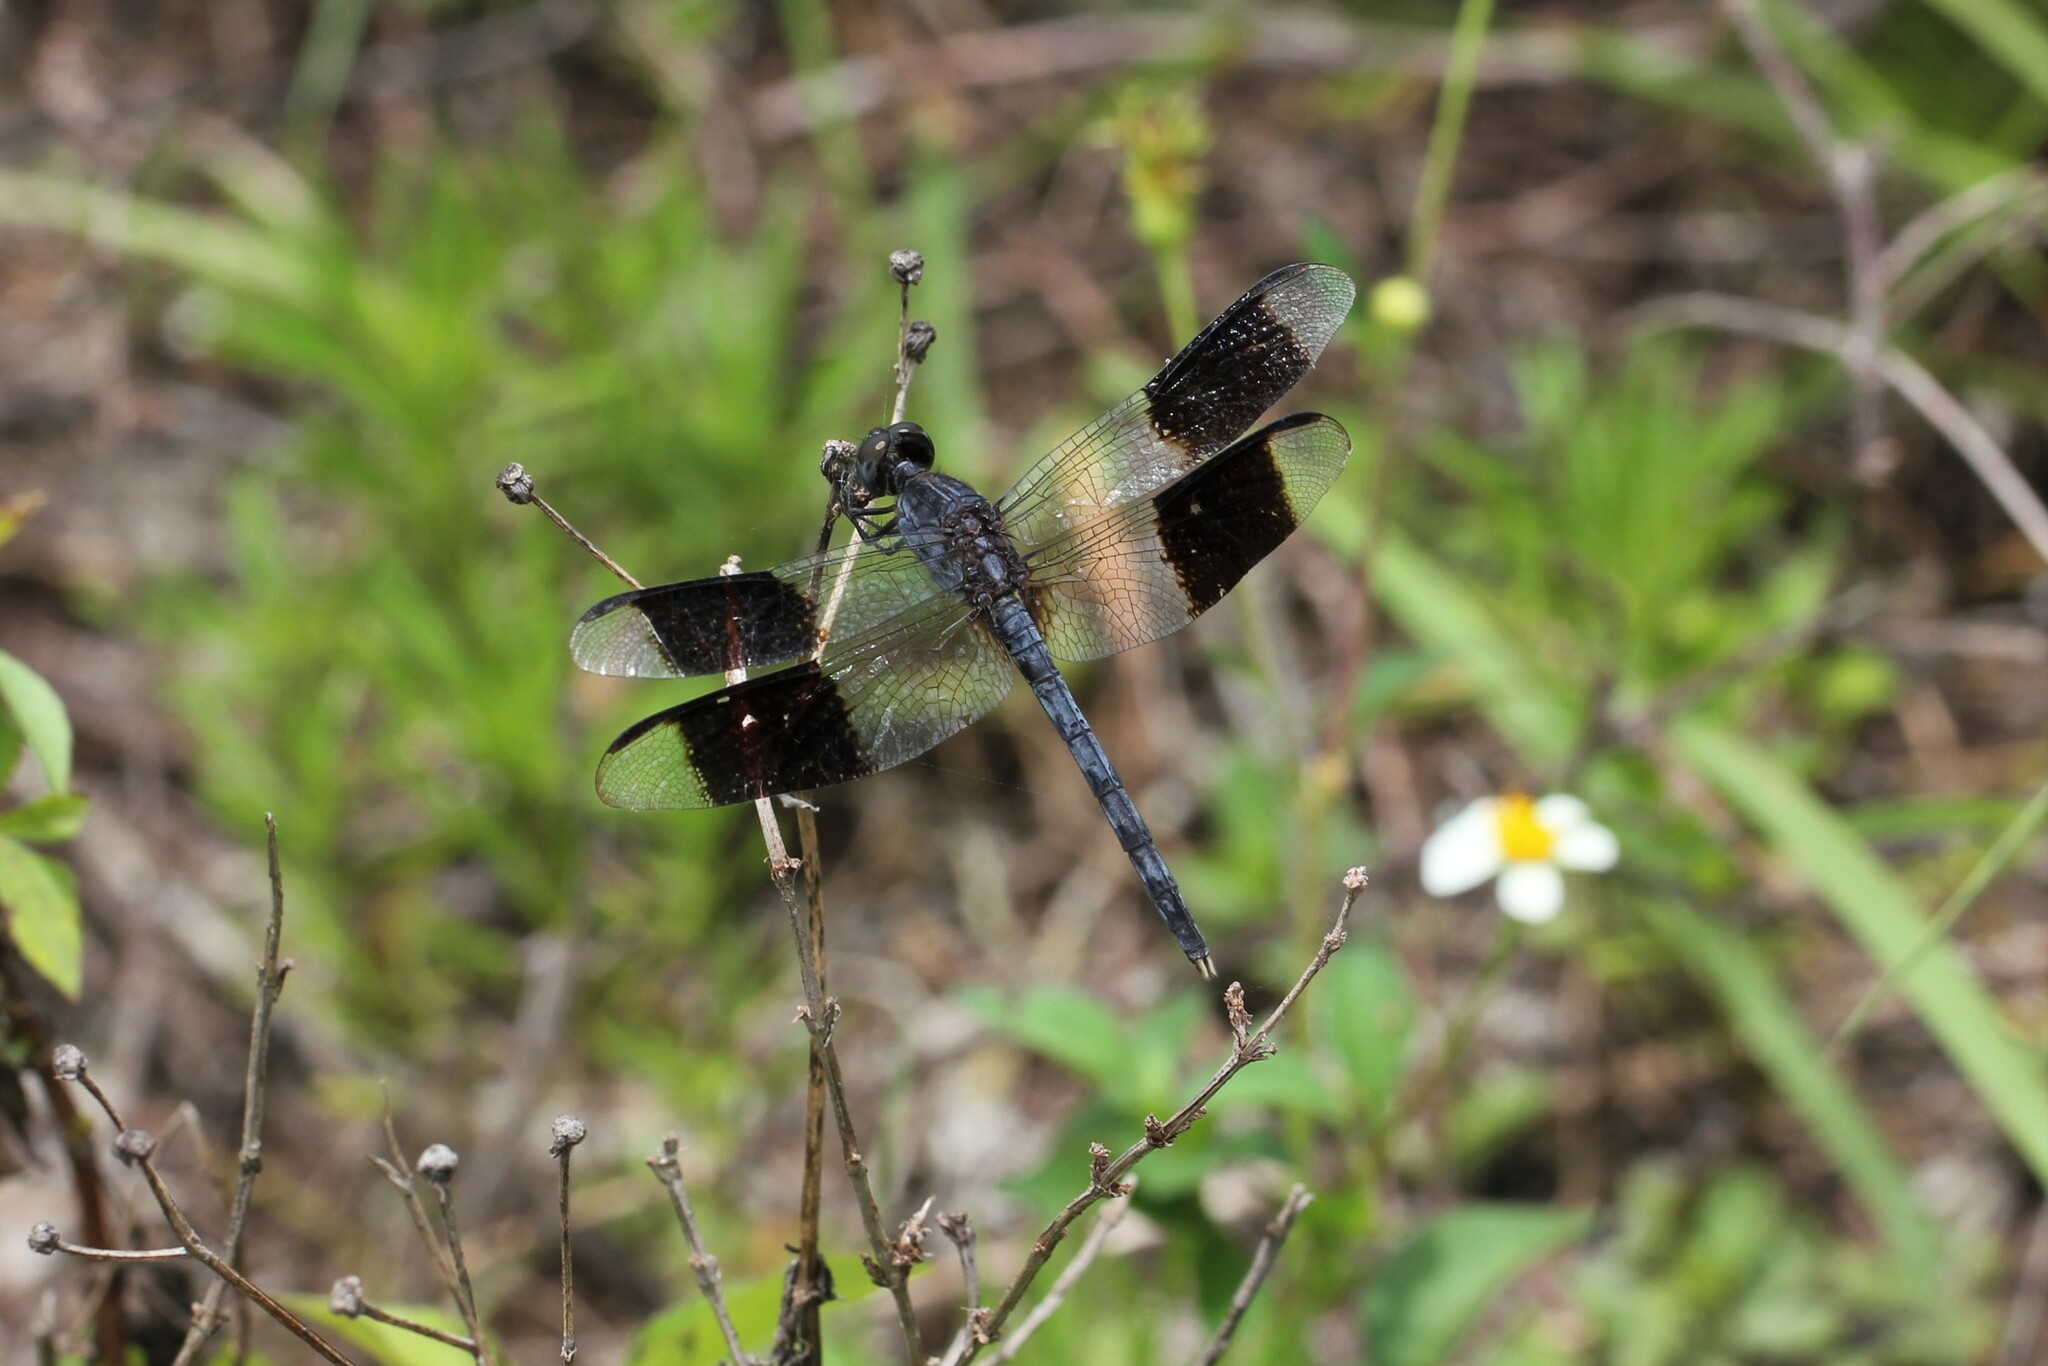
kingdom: Animalia
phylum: Arthropoda
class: Insecta
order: Odonata
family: Libellulidae
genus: Erythrodiplax
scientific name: Erythrodiplax umbrata
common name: Band-winged dragonlet
